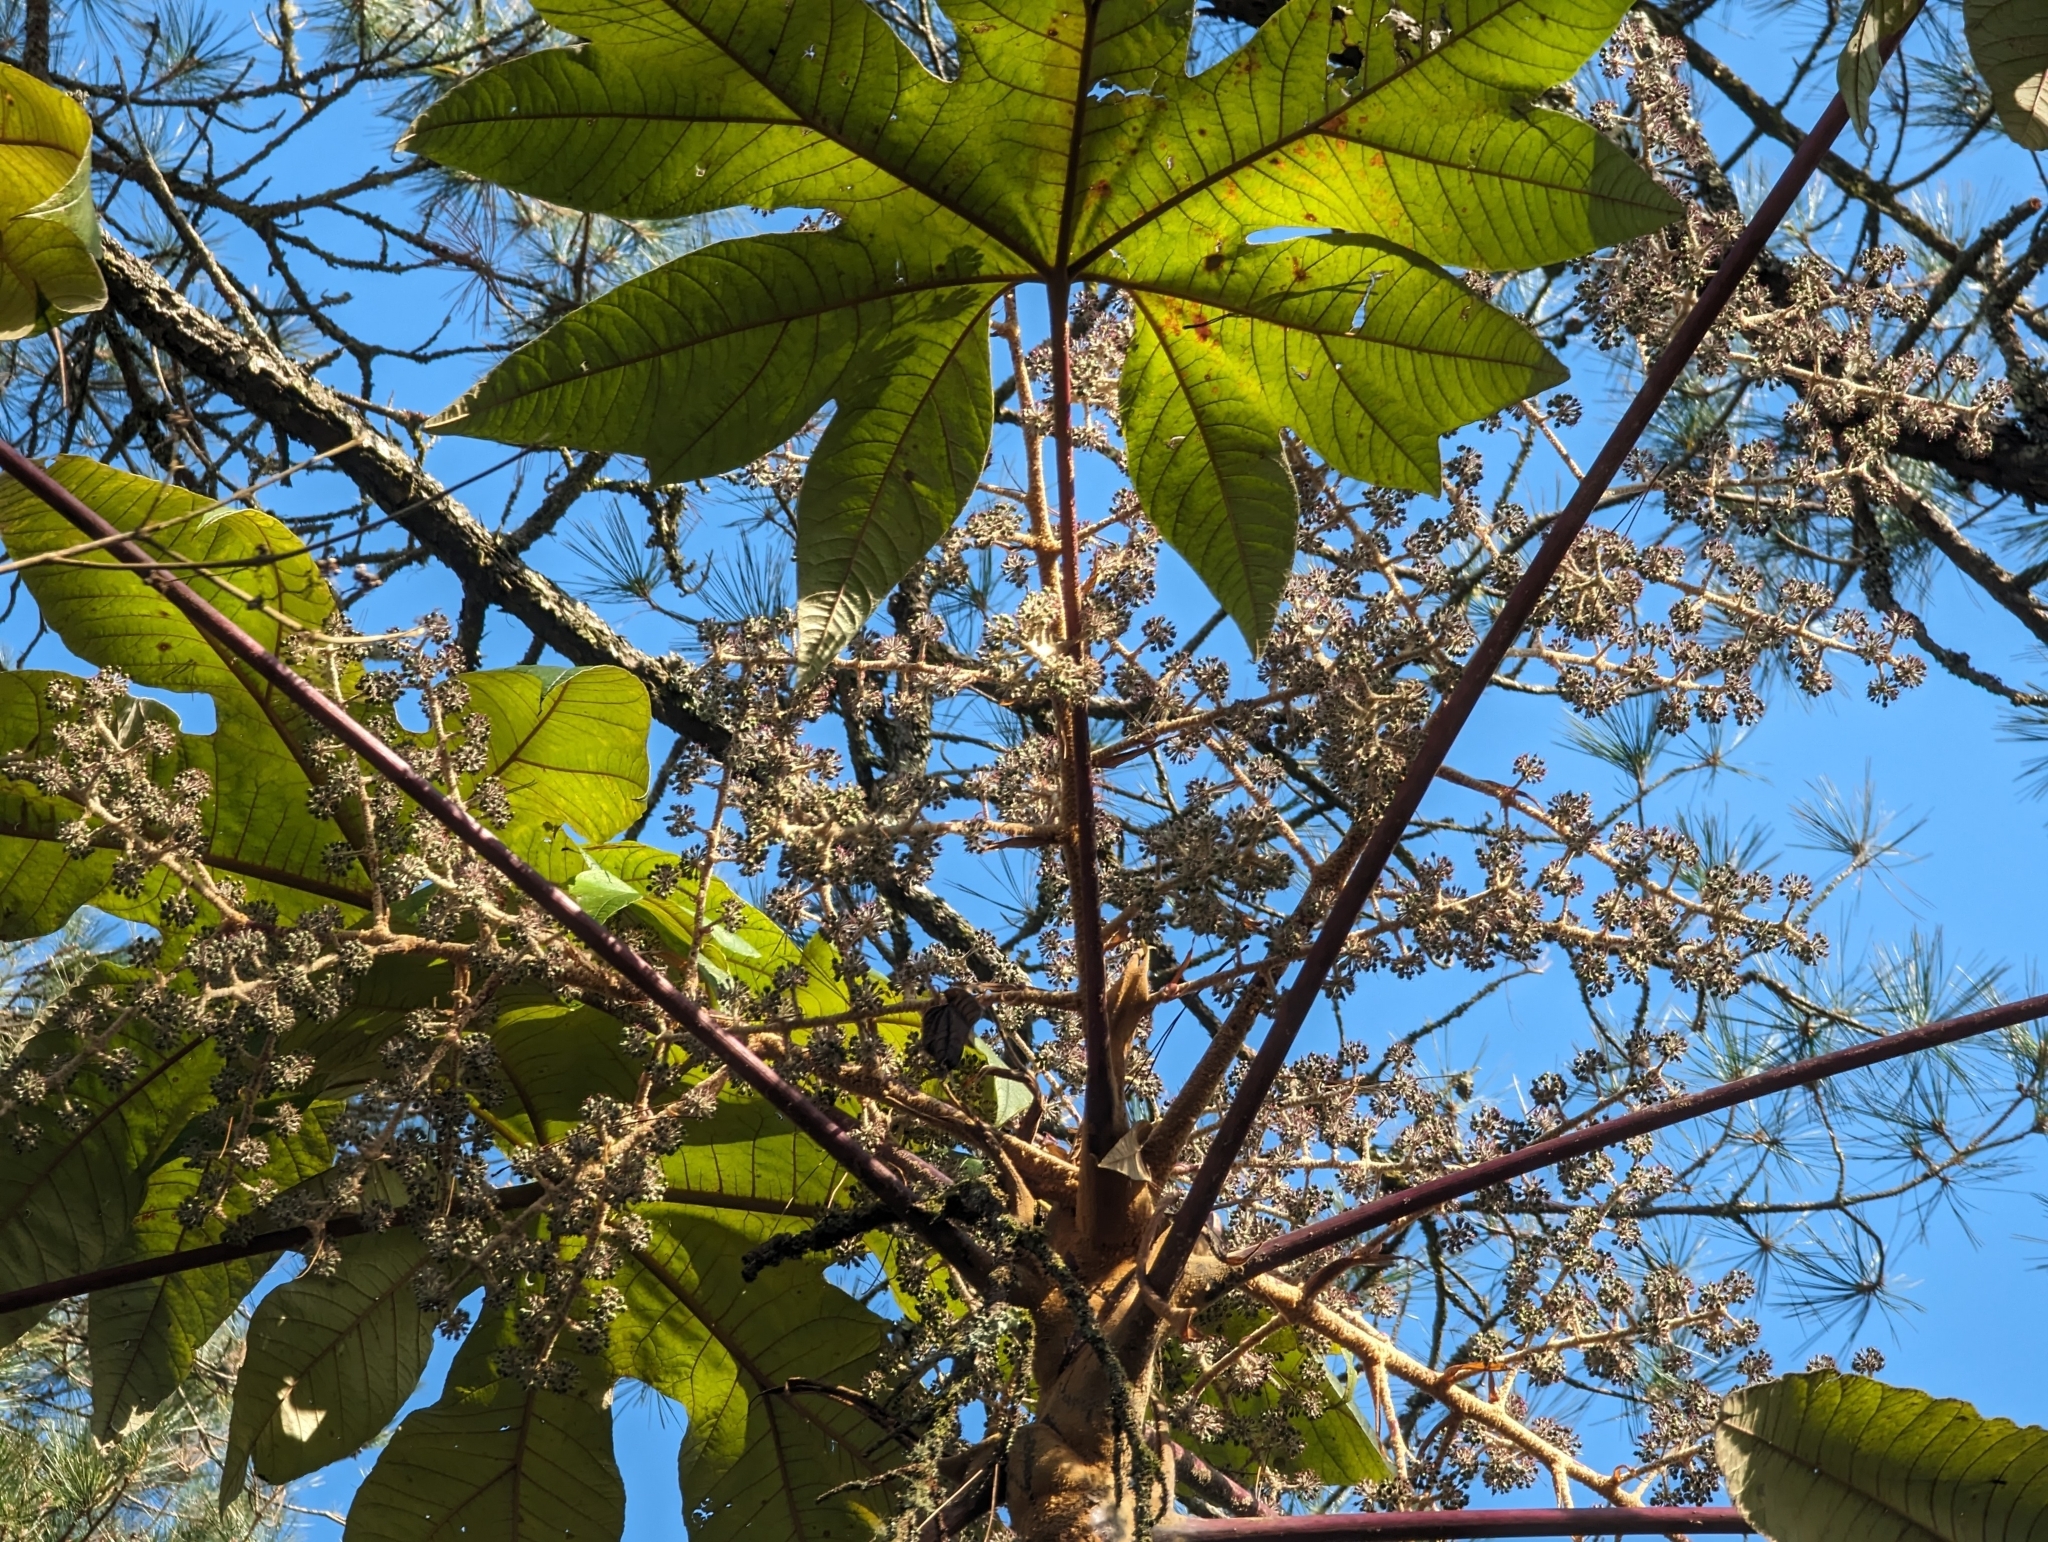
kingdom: Plantae
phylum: Tracheophyta
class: Magnoliopsida
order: Apiales
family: Araliaceae
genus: Tetrapanax
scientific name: Tetrapanax papyrifer
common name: Rice-paper plant
